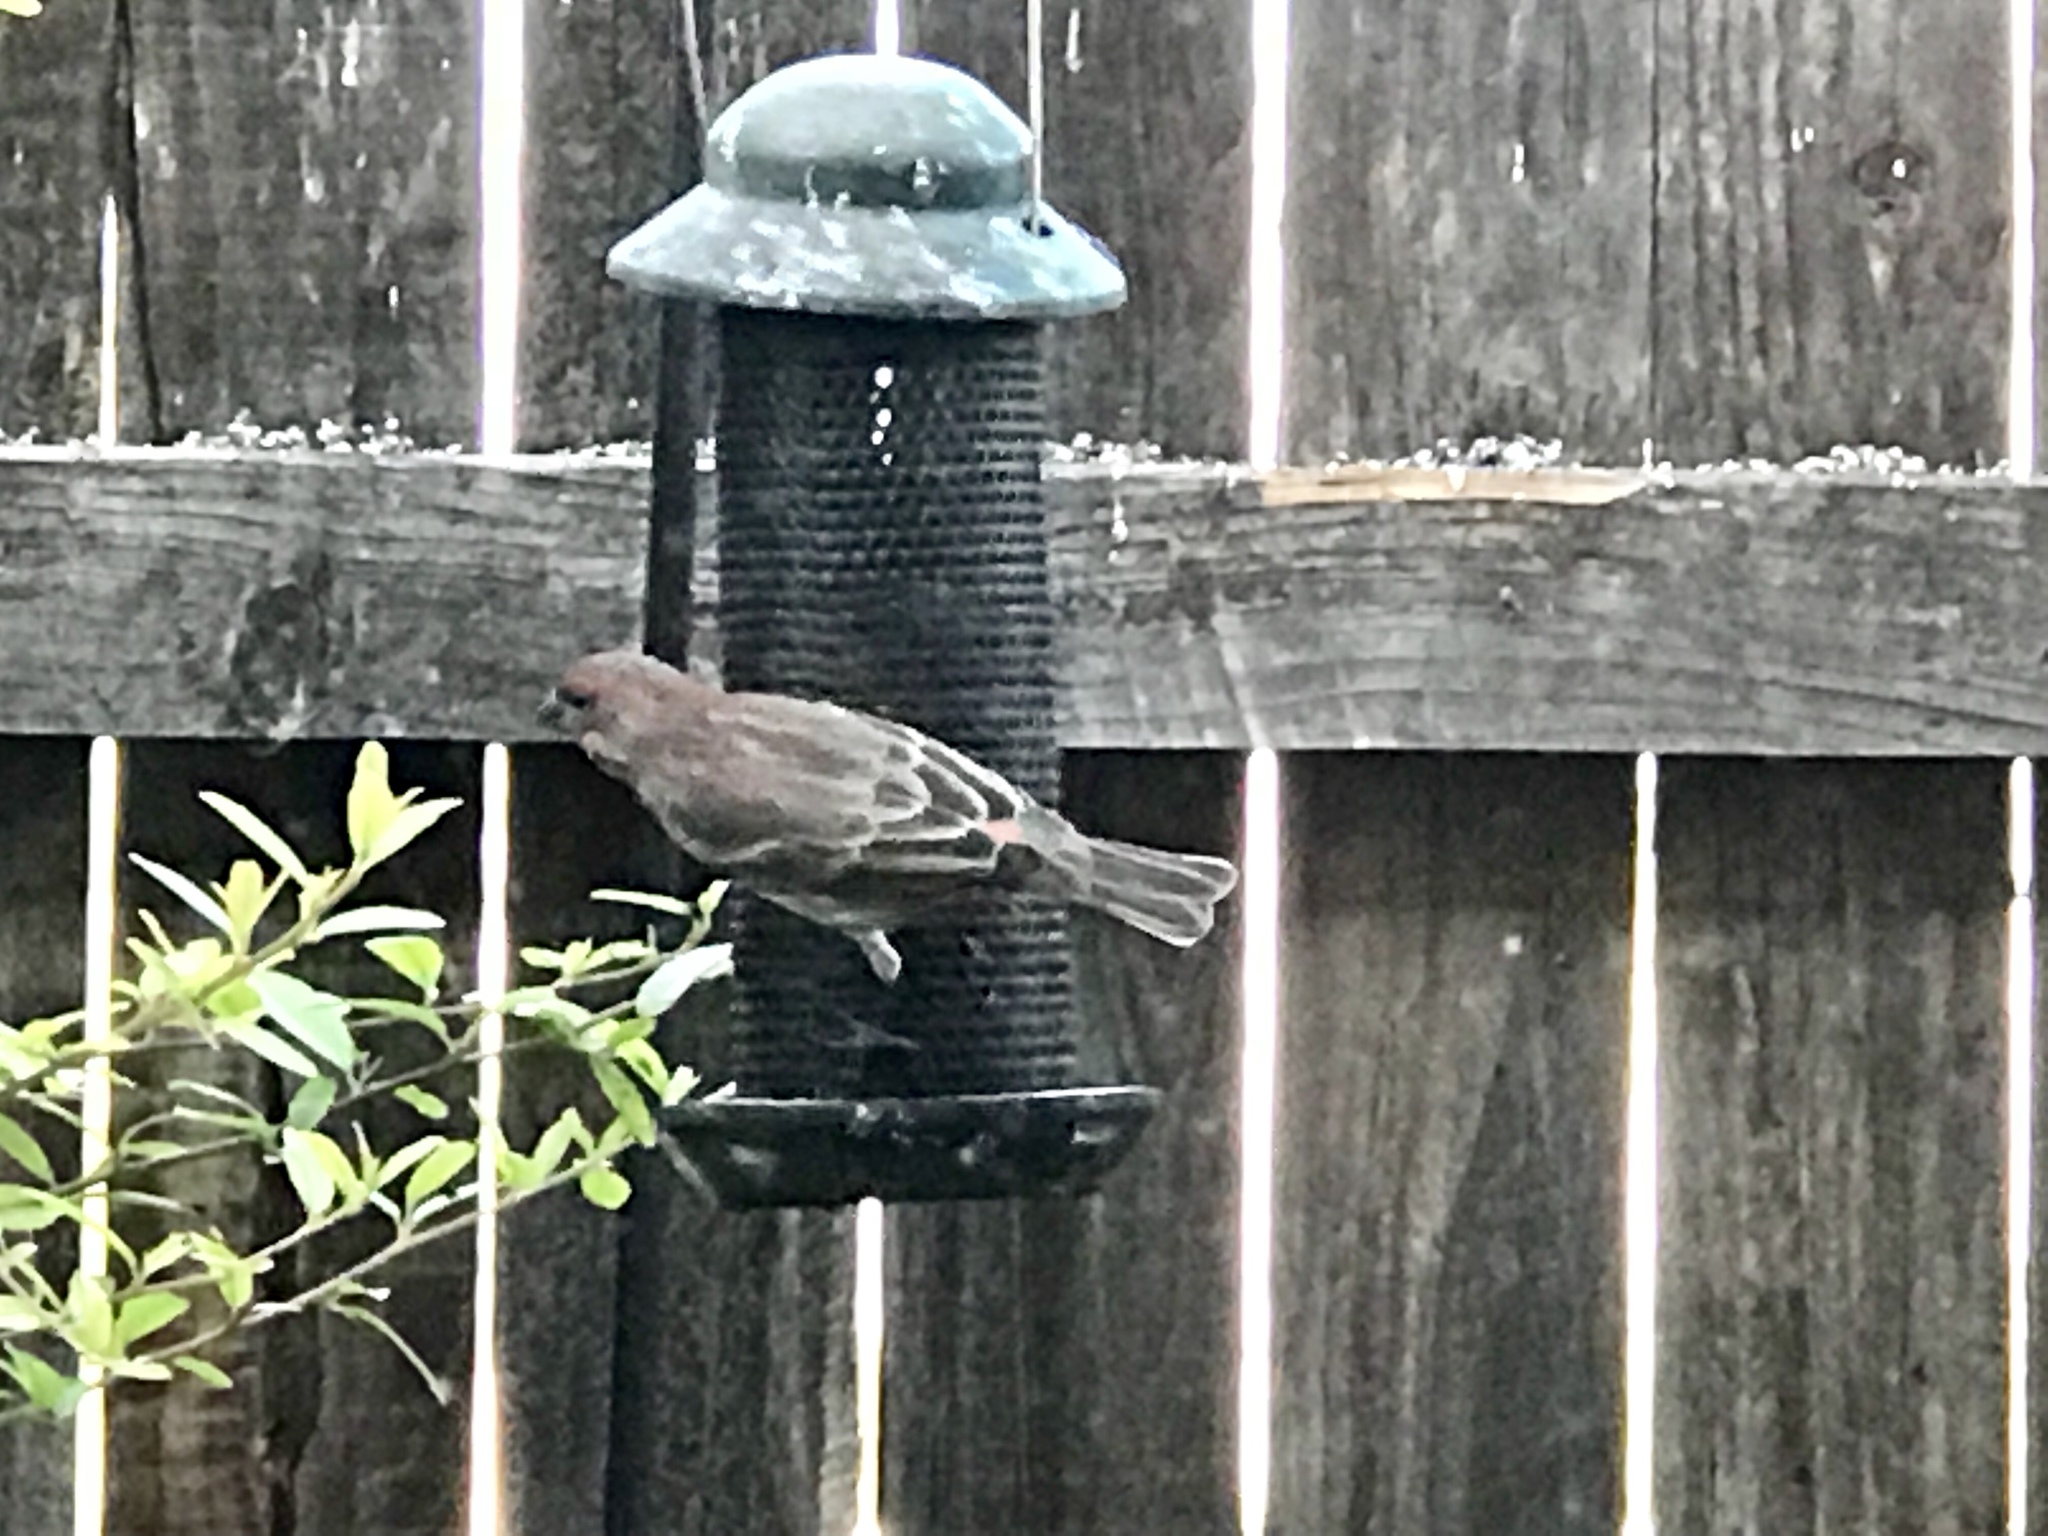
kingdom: Animalia
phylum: Chordata
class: Aves
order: Passeriformes
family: Fringillidae
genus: Haemorhous
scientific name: Haemorhous mexicanus
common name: House finch
